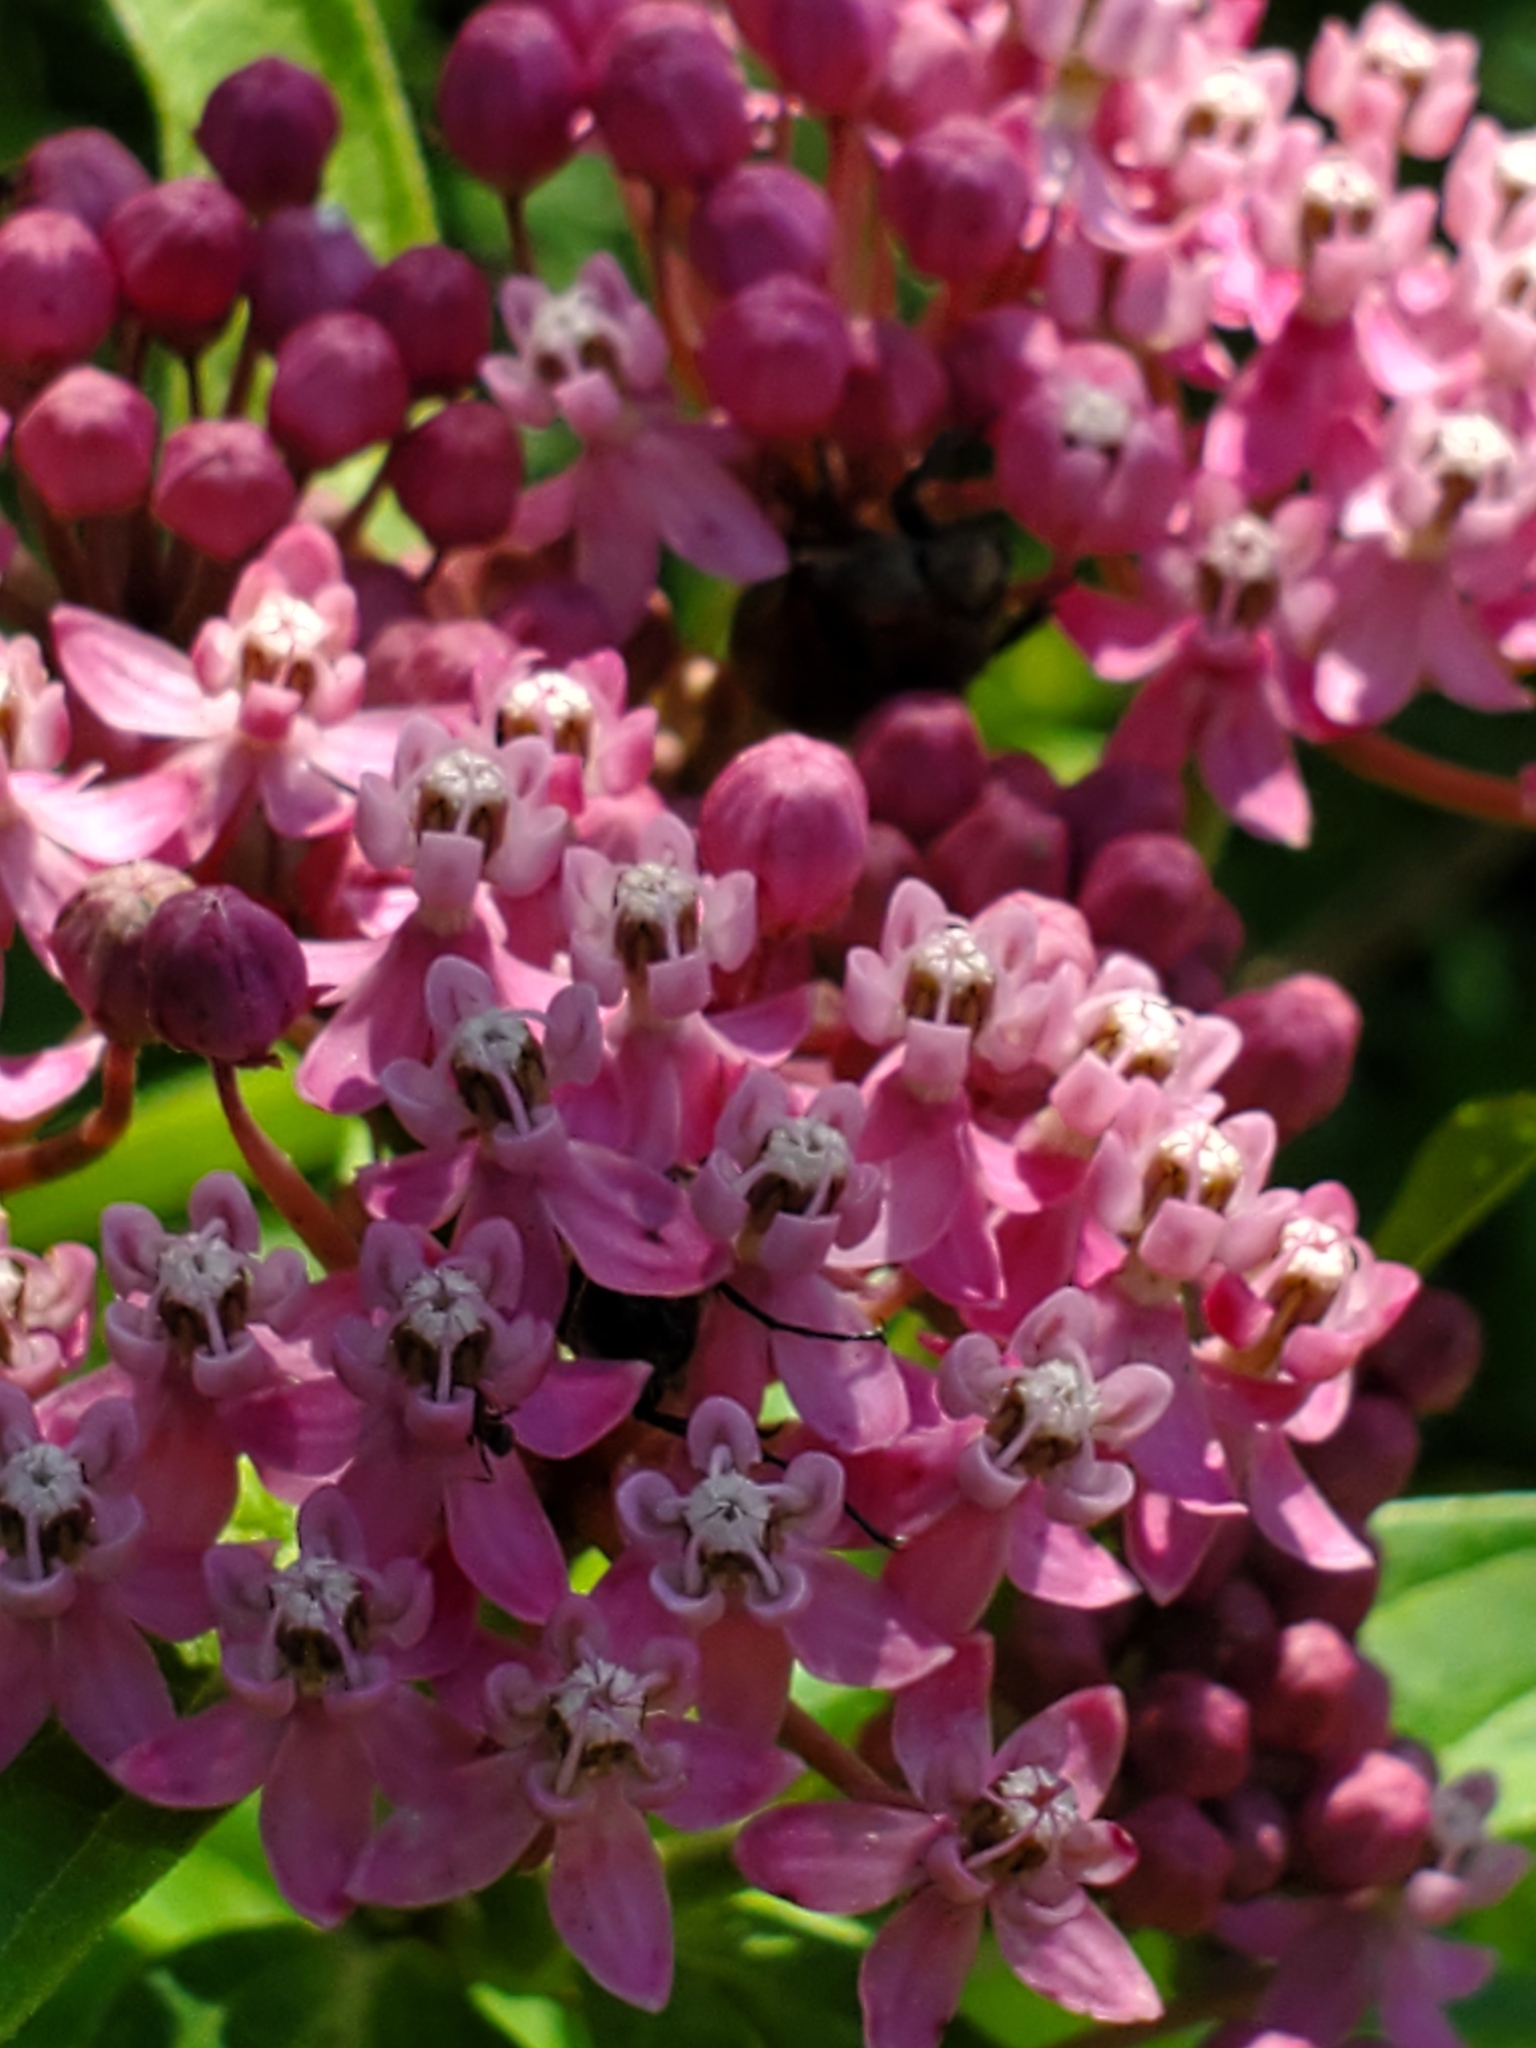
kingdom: Plantae
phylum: Tracheophyta
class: Magnoliopsida
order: Gentianales
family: Apocynaceae
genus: Asclepias
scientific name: Asclepias incarnata
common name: Swamp milkweed
